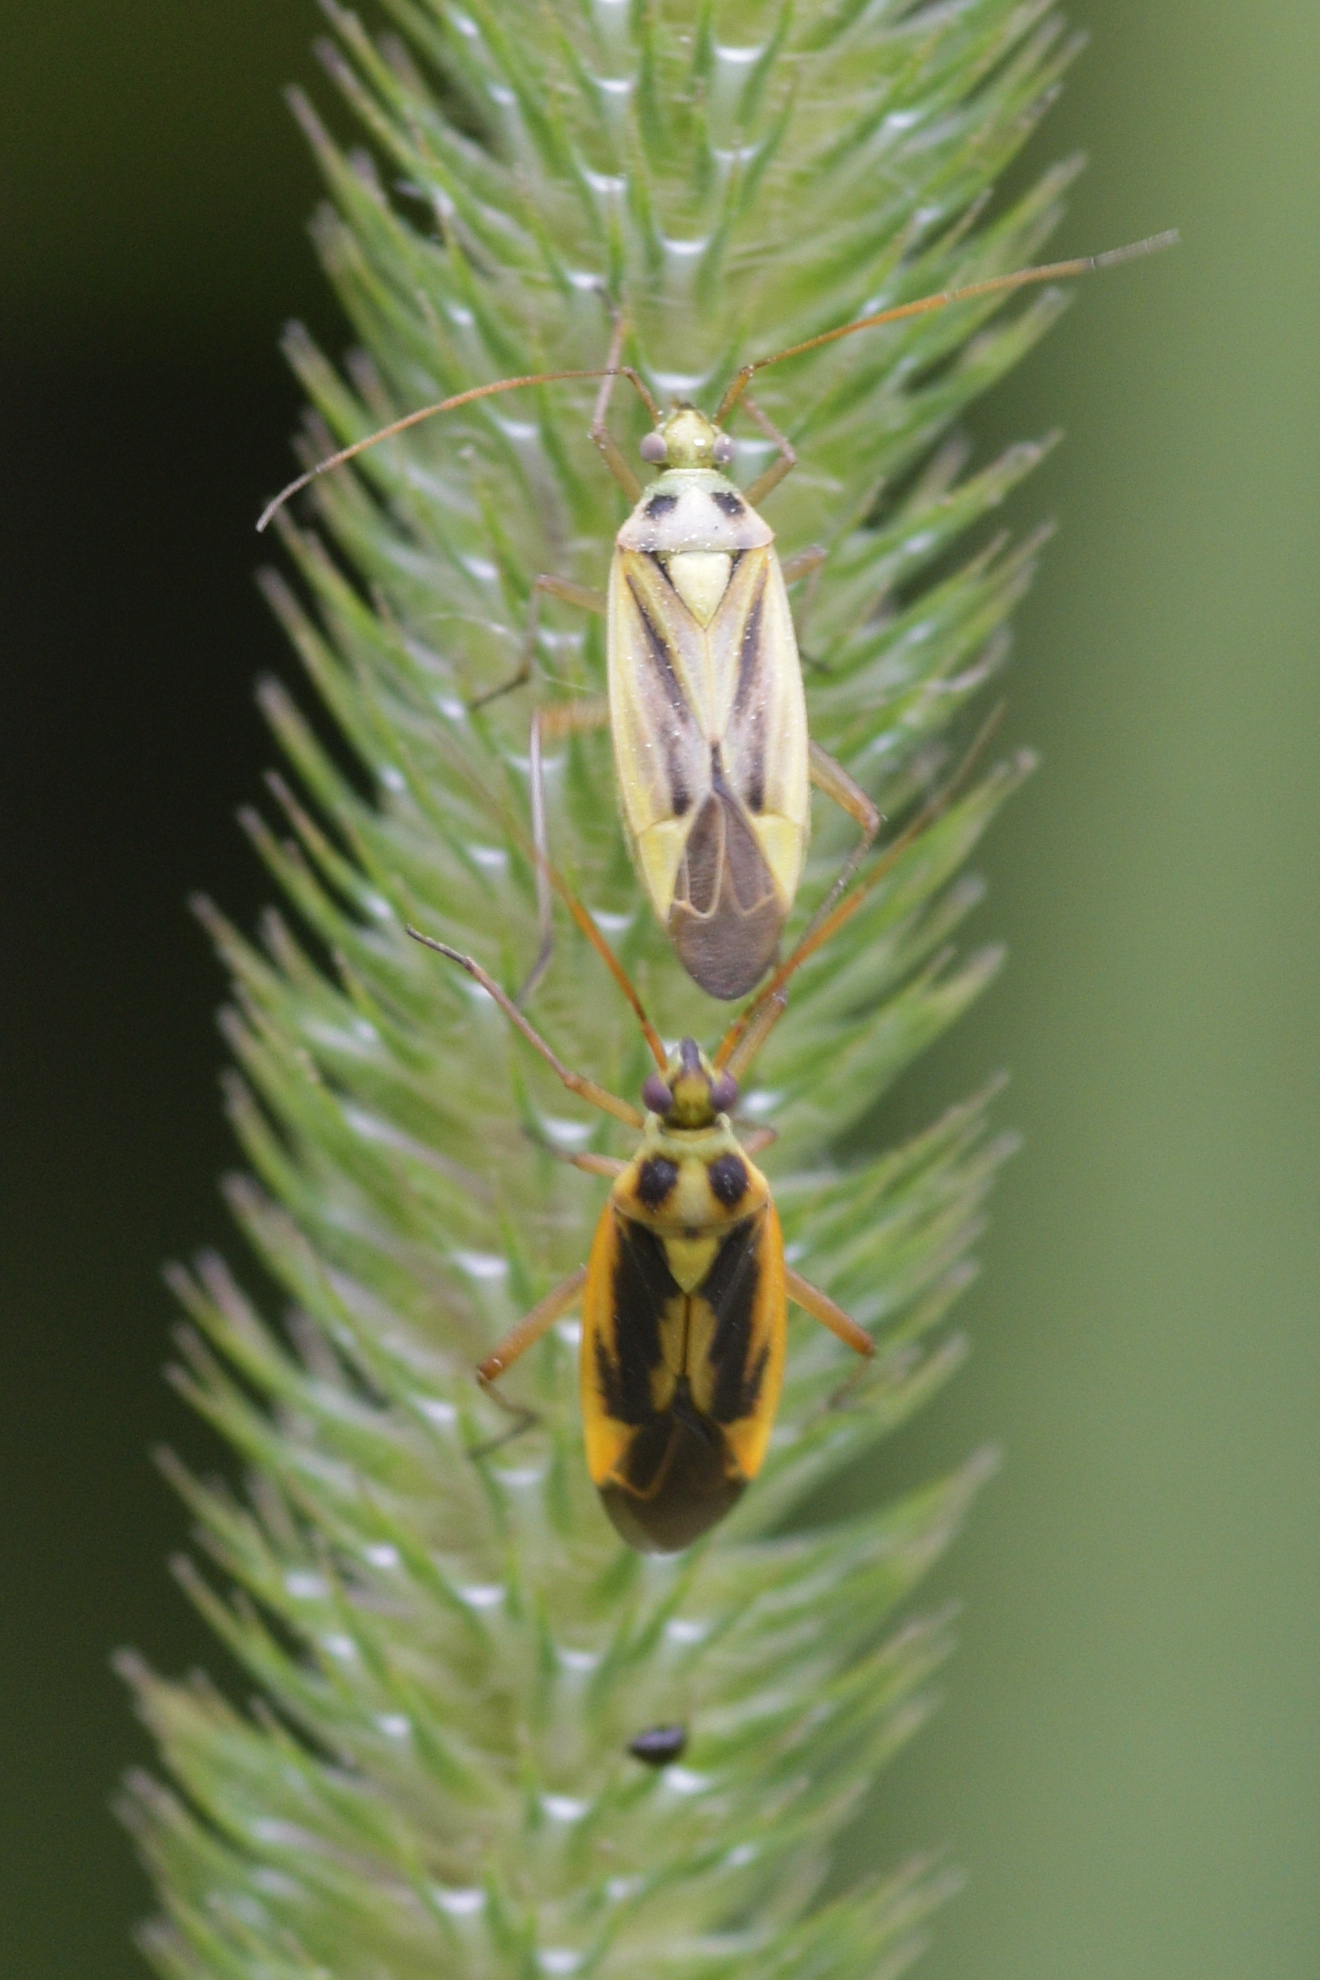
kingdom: Animalia
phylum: Arthropoda
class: Insecta
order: Hemiptera
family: Miridae
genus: Stenotus
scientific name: Stenotus binotatus
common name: Plant bug
